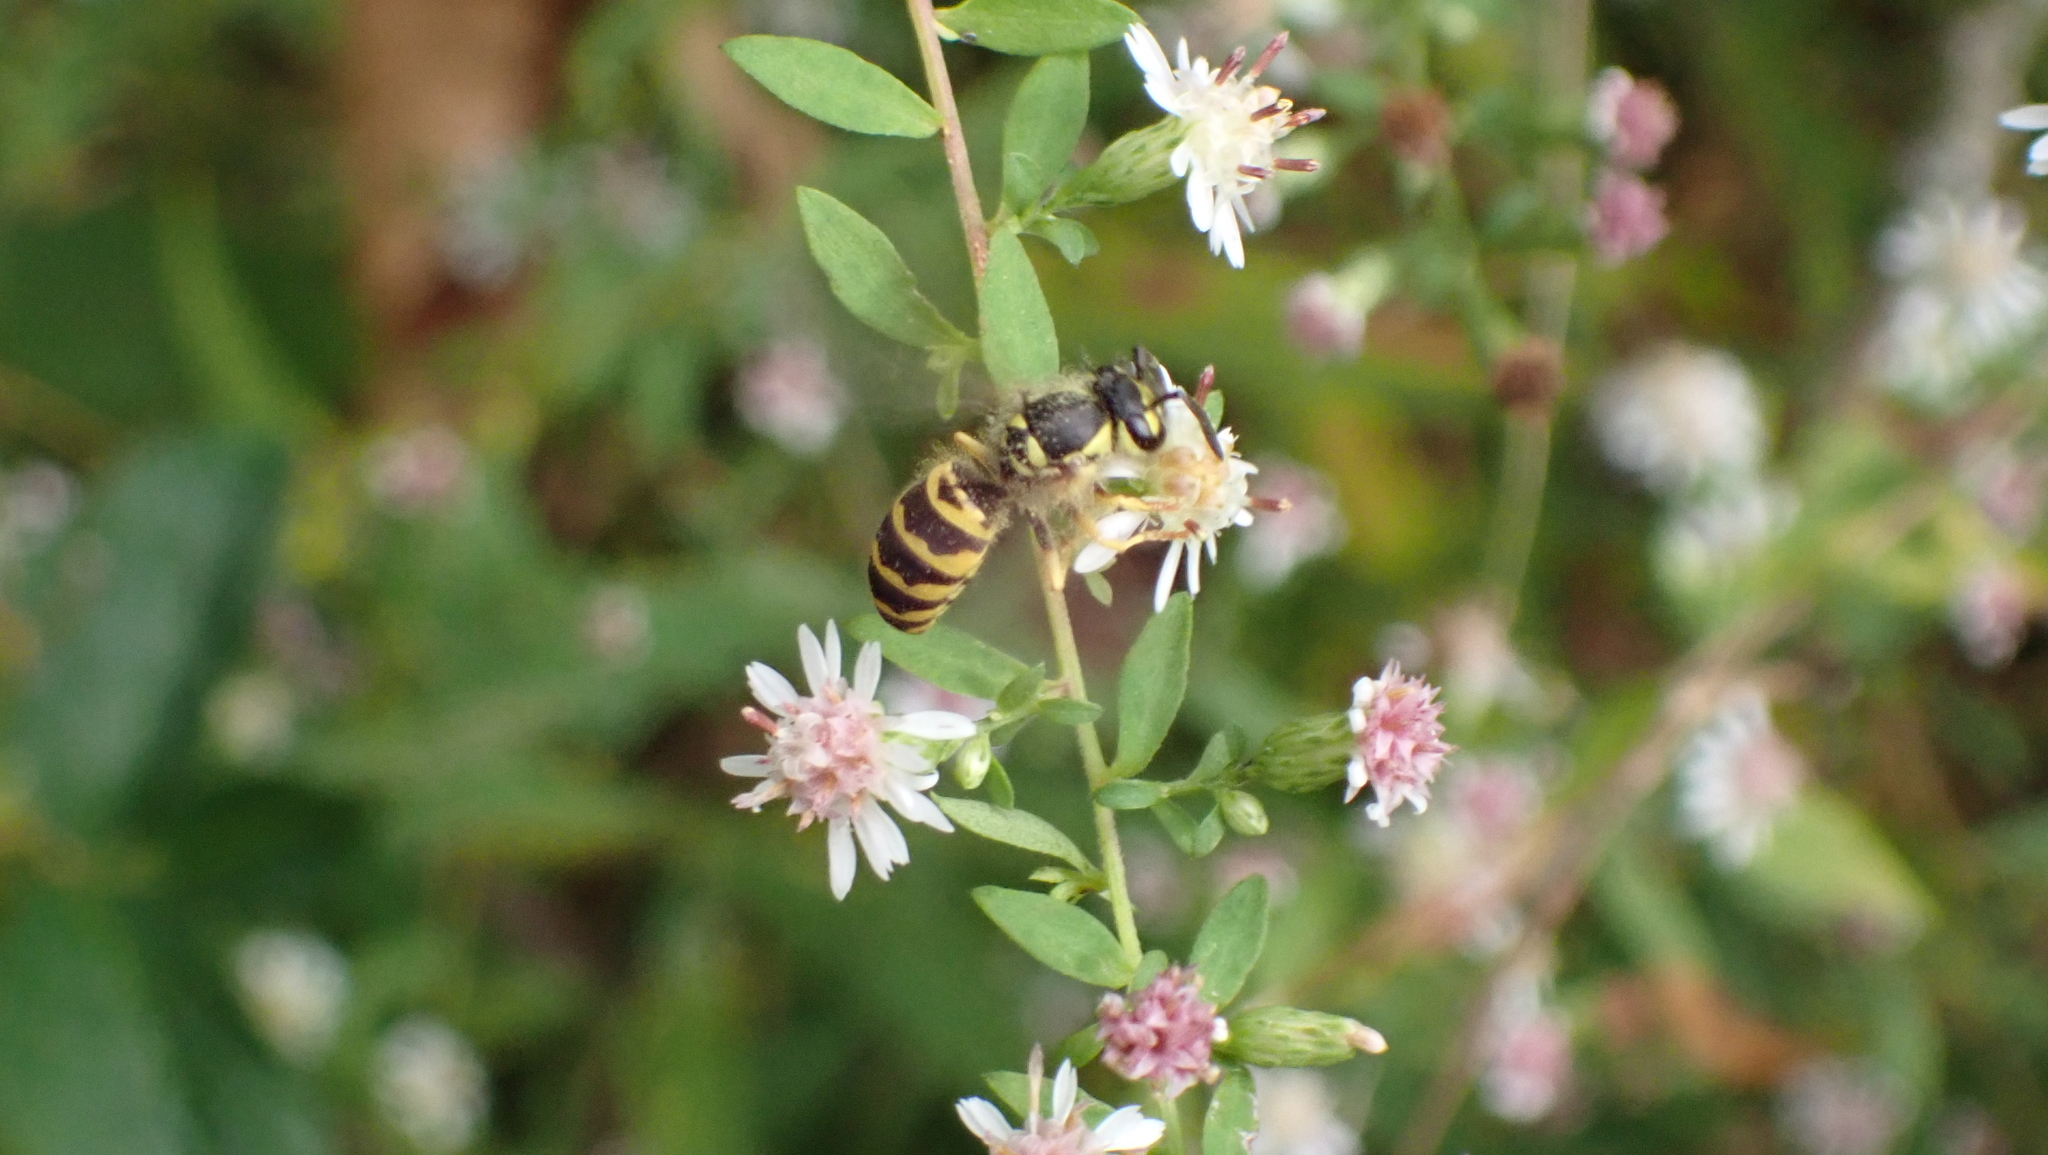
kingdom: Animalia
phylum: Arthropoda
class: Insecta
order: Hymenoptera
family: Vespidae
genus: Vespula
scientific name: Vespula maculifrons
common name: Eastern yellowjacket
